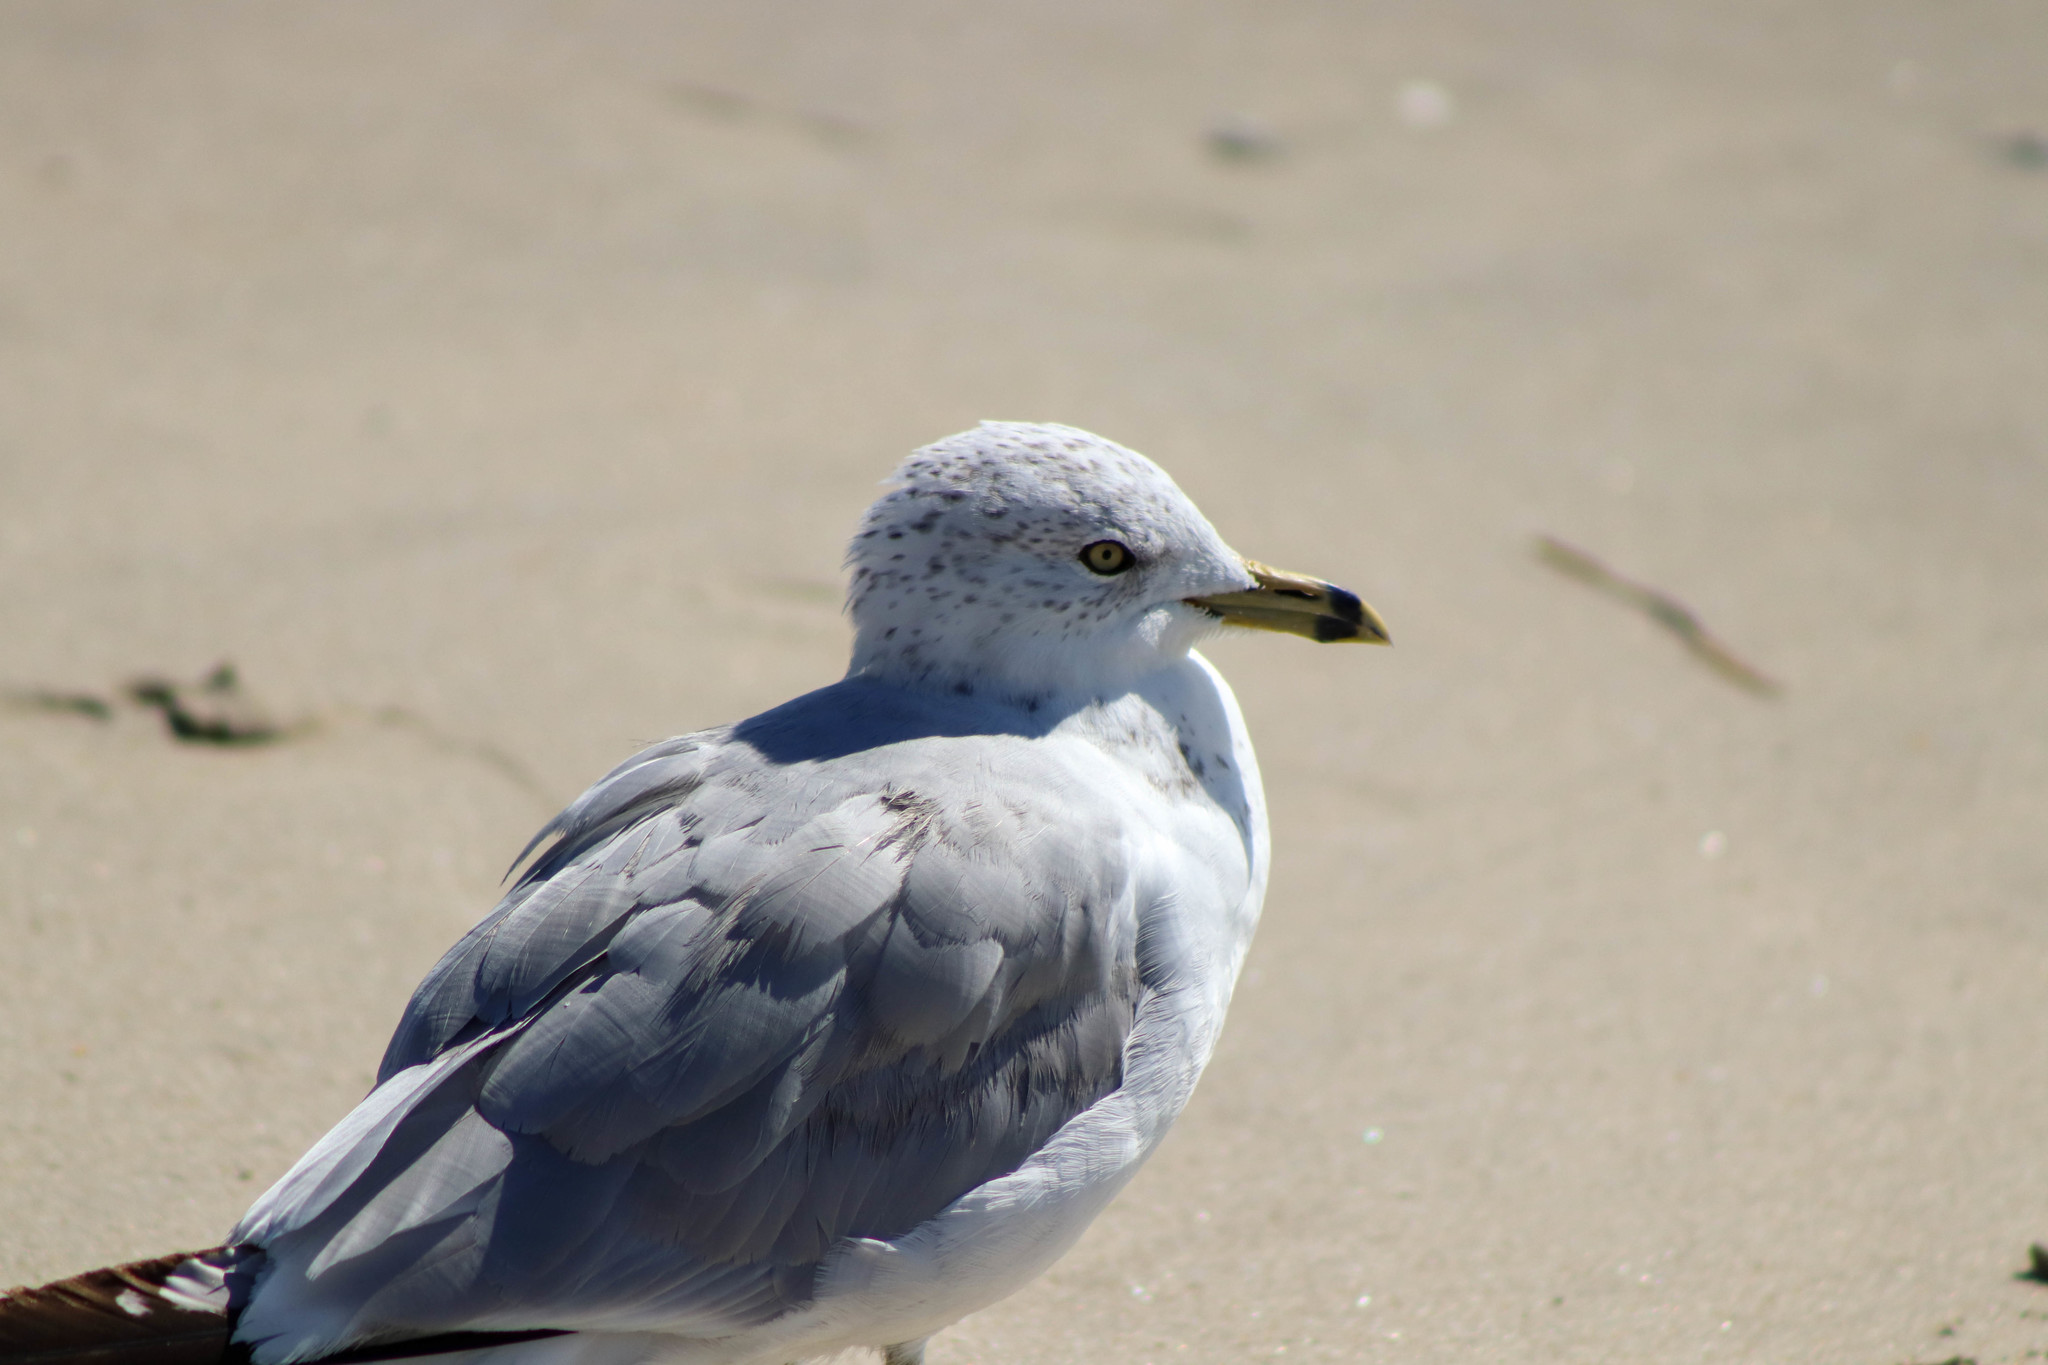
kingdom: Animalia
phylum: Chordata
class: Aves
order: Charadriiformes
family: Laridae
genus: Larus
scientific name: Larus delawarensis
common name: Ring-billed gull
